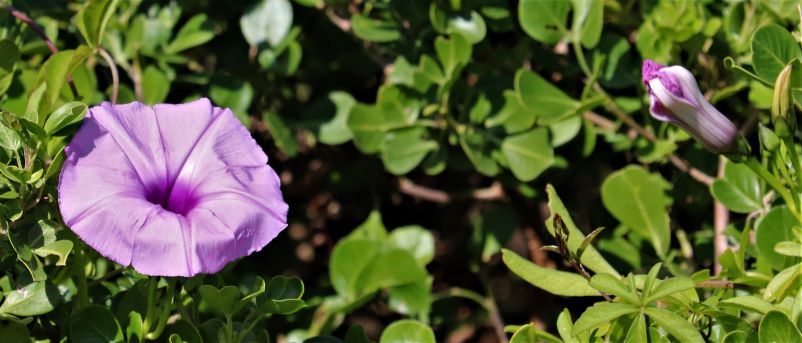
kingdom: Plantae
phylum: Tracheophyta
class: Magnoliopsida
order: Solanales
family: Convolvulaceae
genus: Ipomoea
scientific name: Ipomoea cairica
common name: Mile a minute vine
